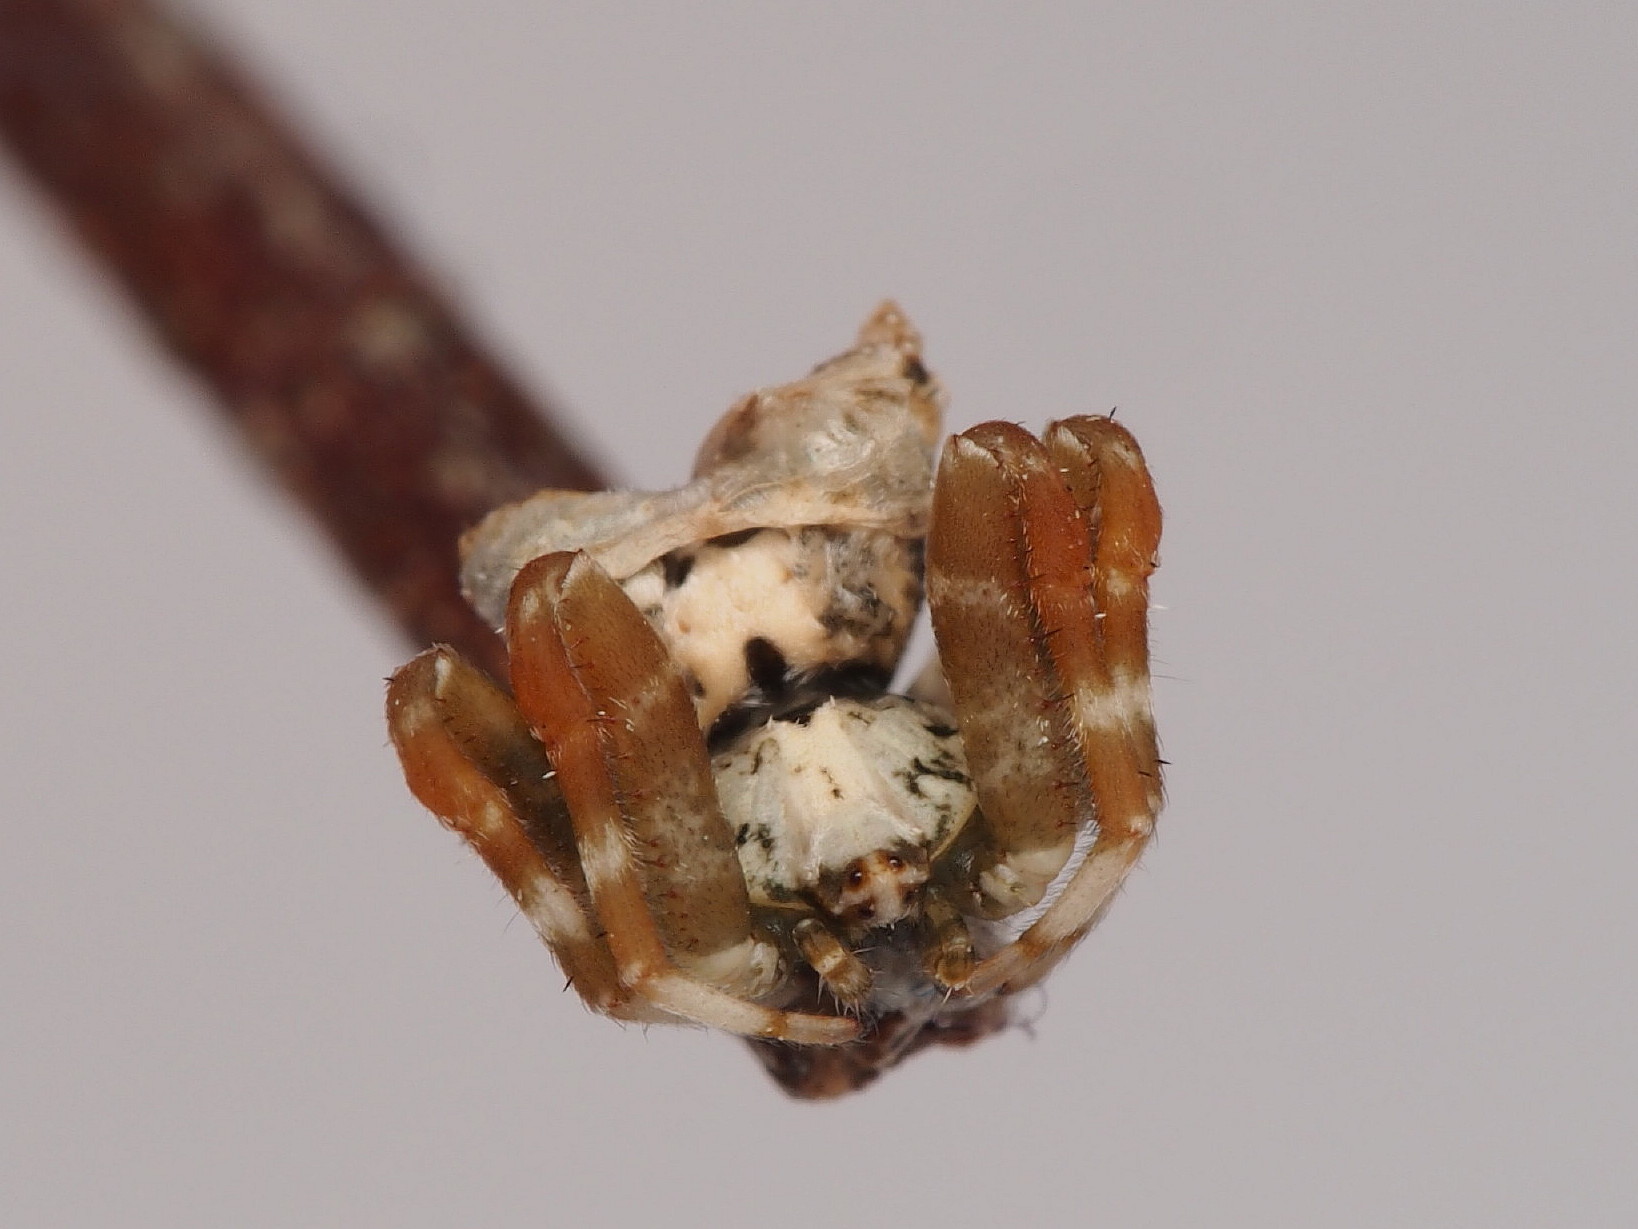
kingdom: Animalia
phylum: Arthropoda
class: Arachnida
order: Araneae
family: Araneidae
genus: Celaenia
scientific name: Celaenia olivacea
